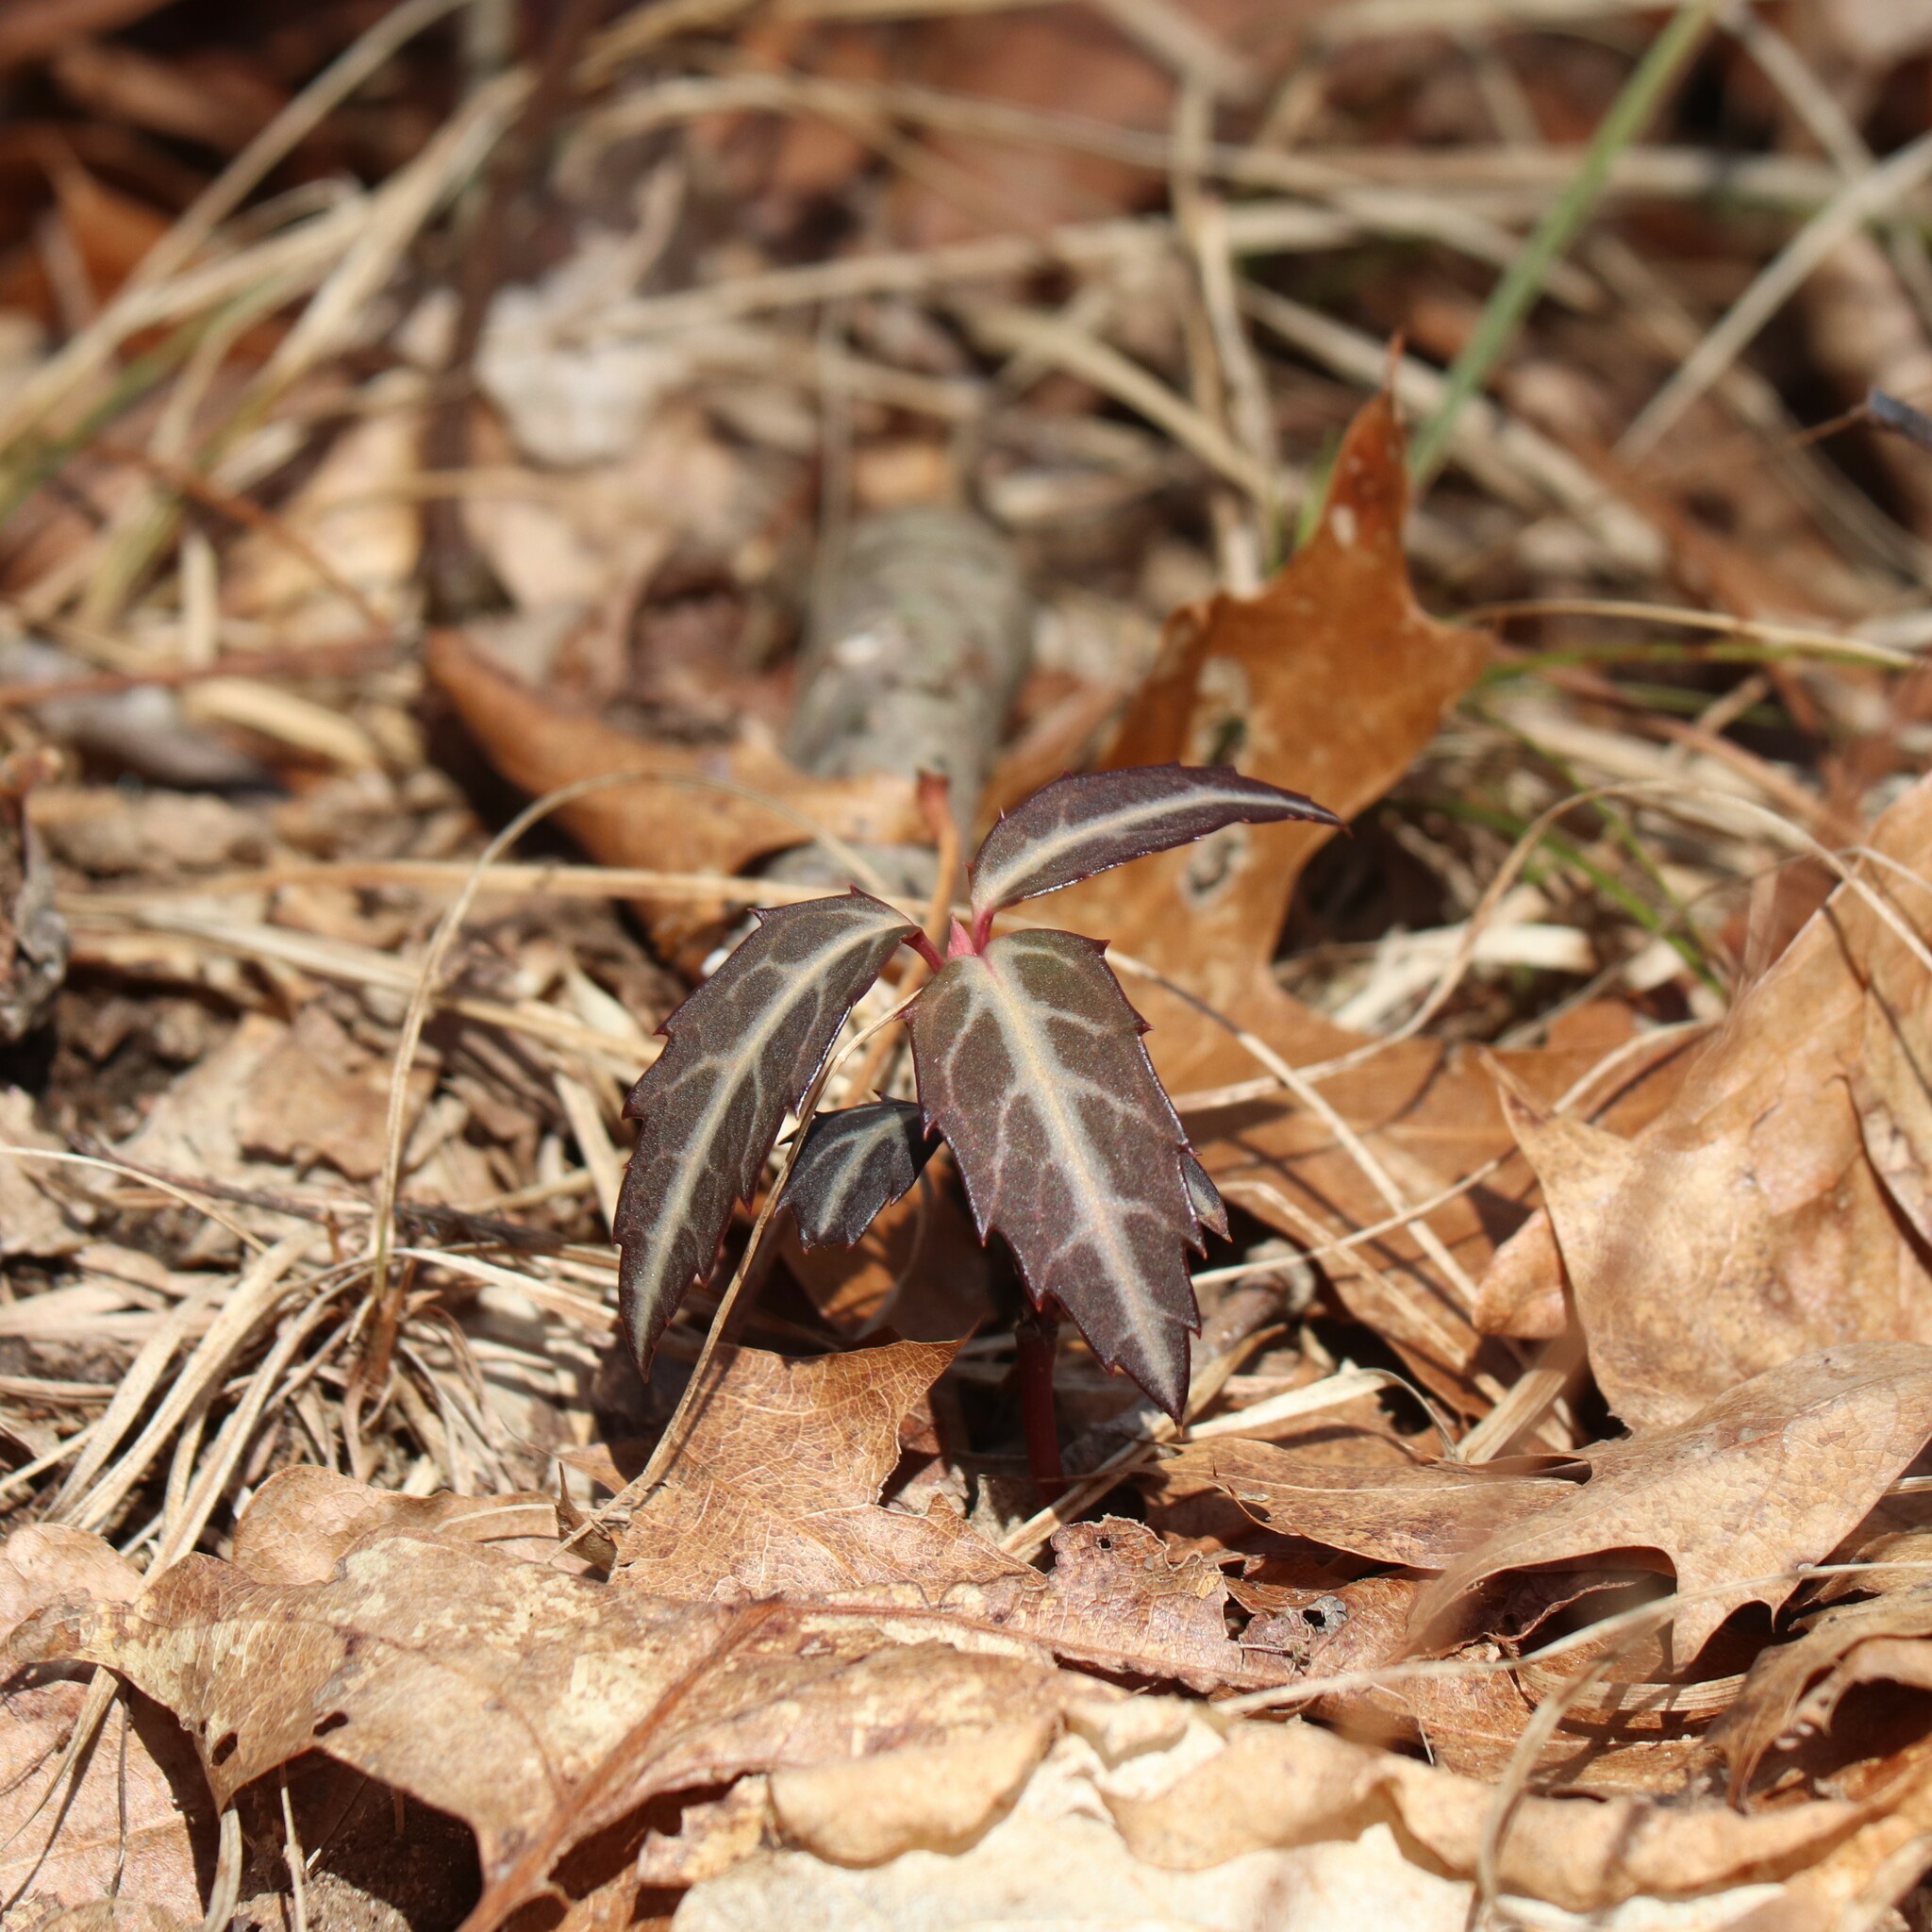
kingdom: Plantae
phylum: Tracheophyta
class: Magnoliopsida
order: Ericales
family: Ericaceae
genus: Chimaphila
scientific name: Chimaphila maculata
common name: Spotted pipsissewa
